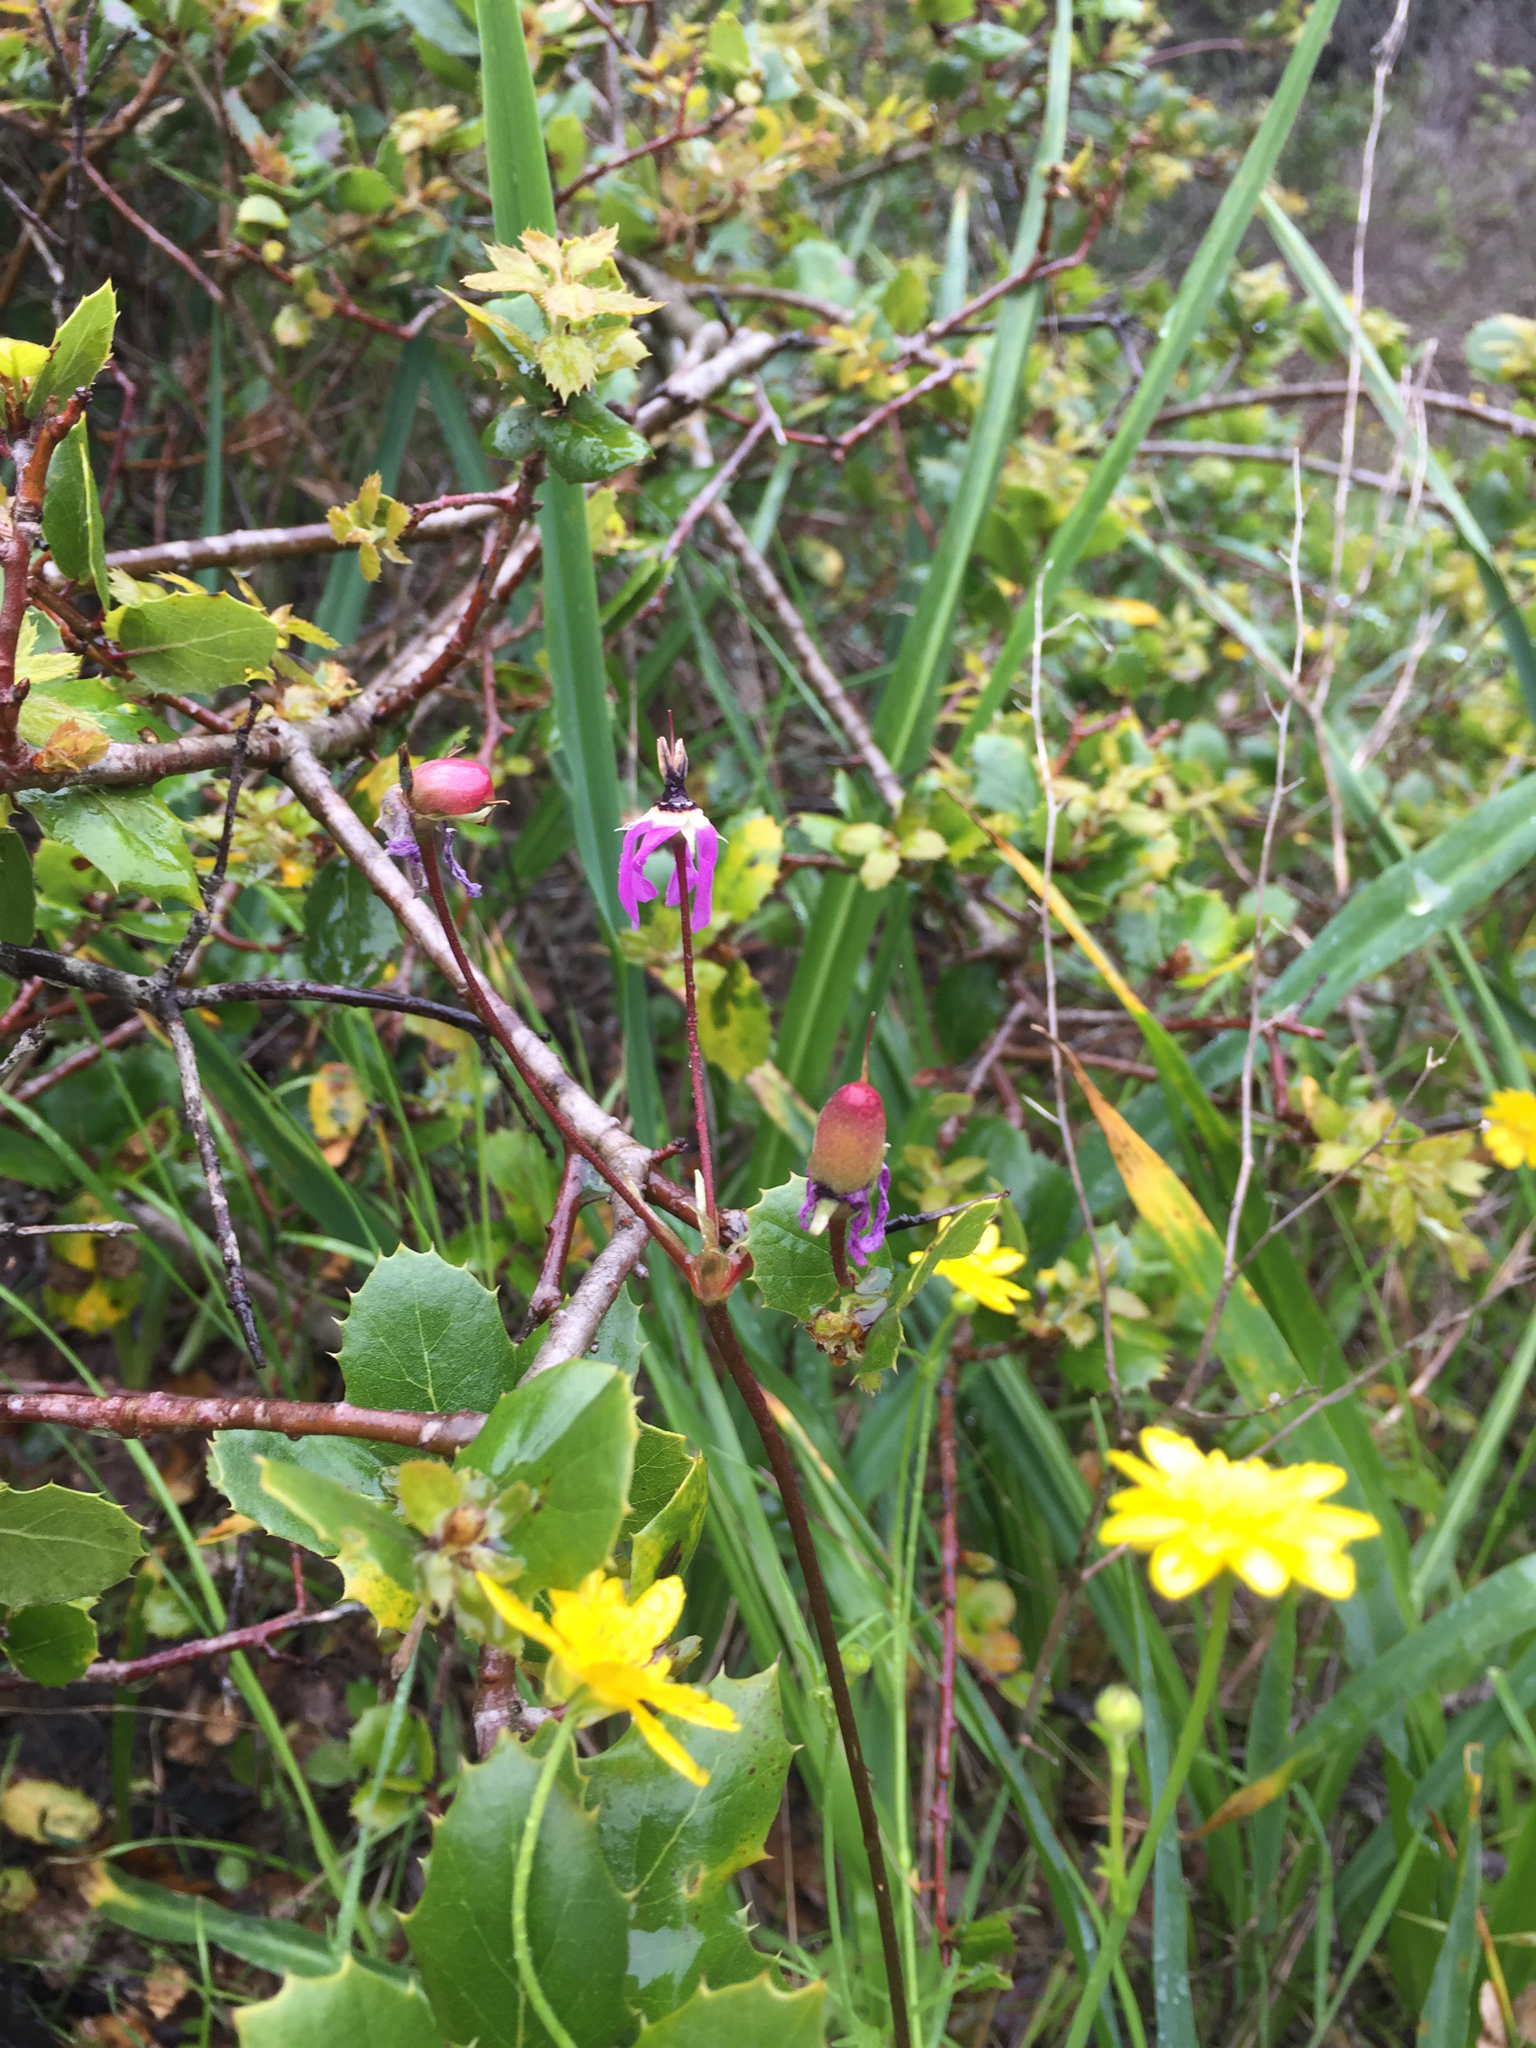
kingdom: Plantae
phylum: Tracheophyta
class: Magnoliopsida
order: Ericales
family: Primulaceae
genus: Dodecatheon
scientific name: Dodecatheon hendersonii
